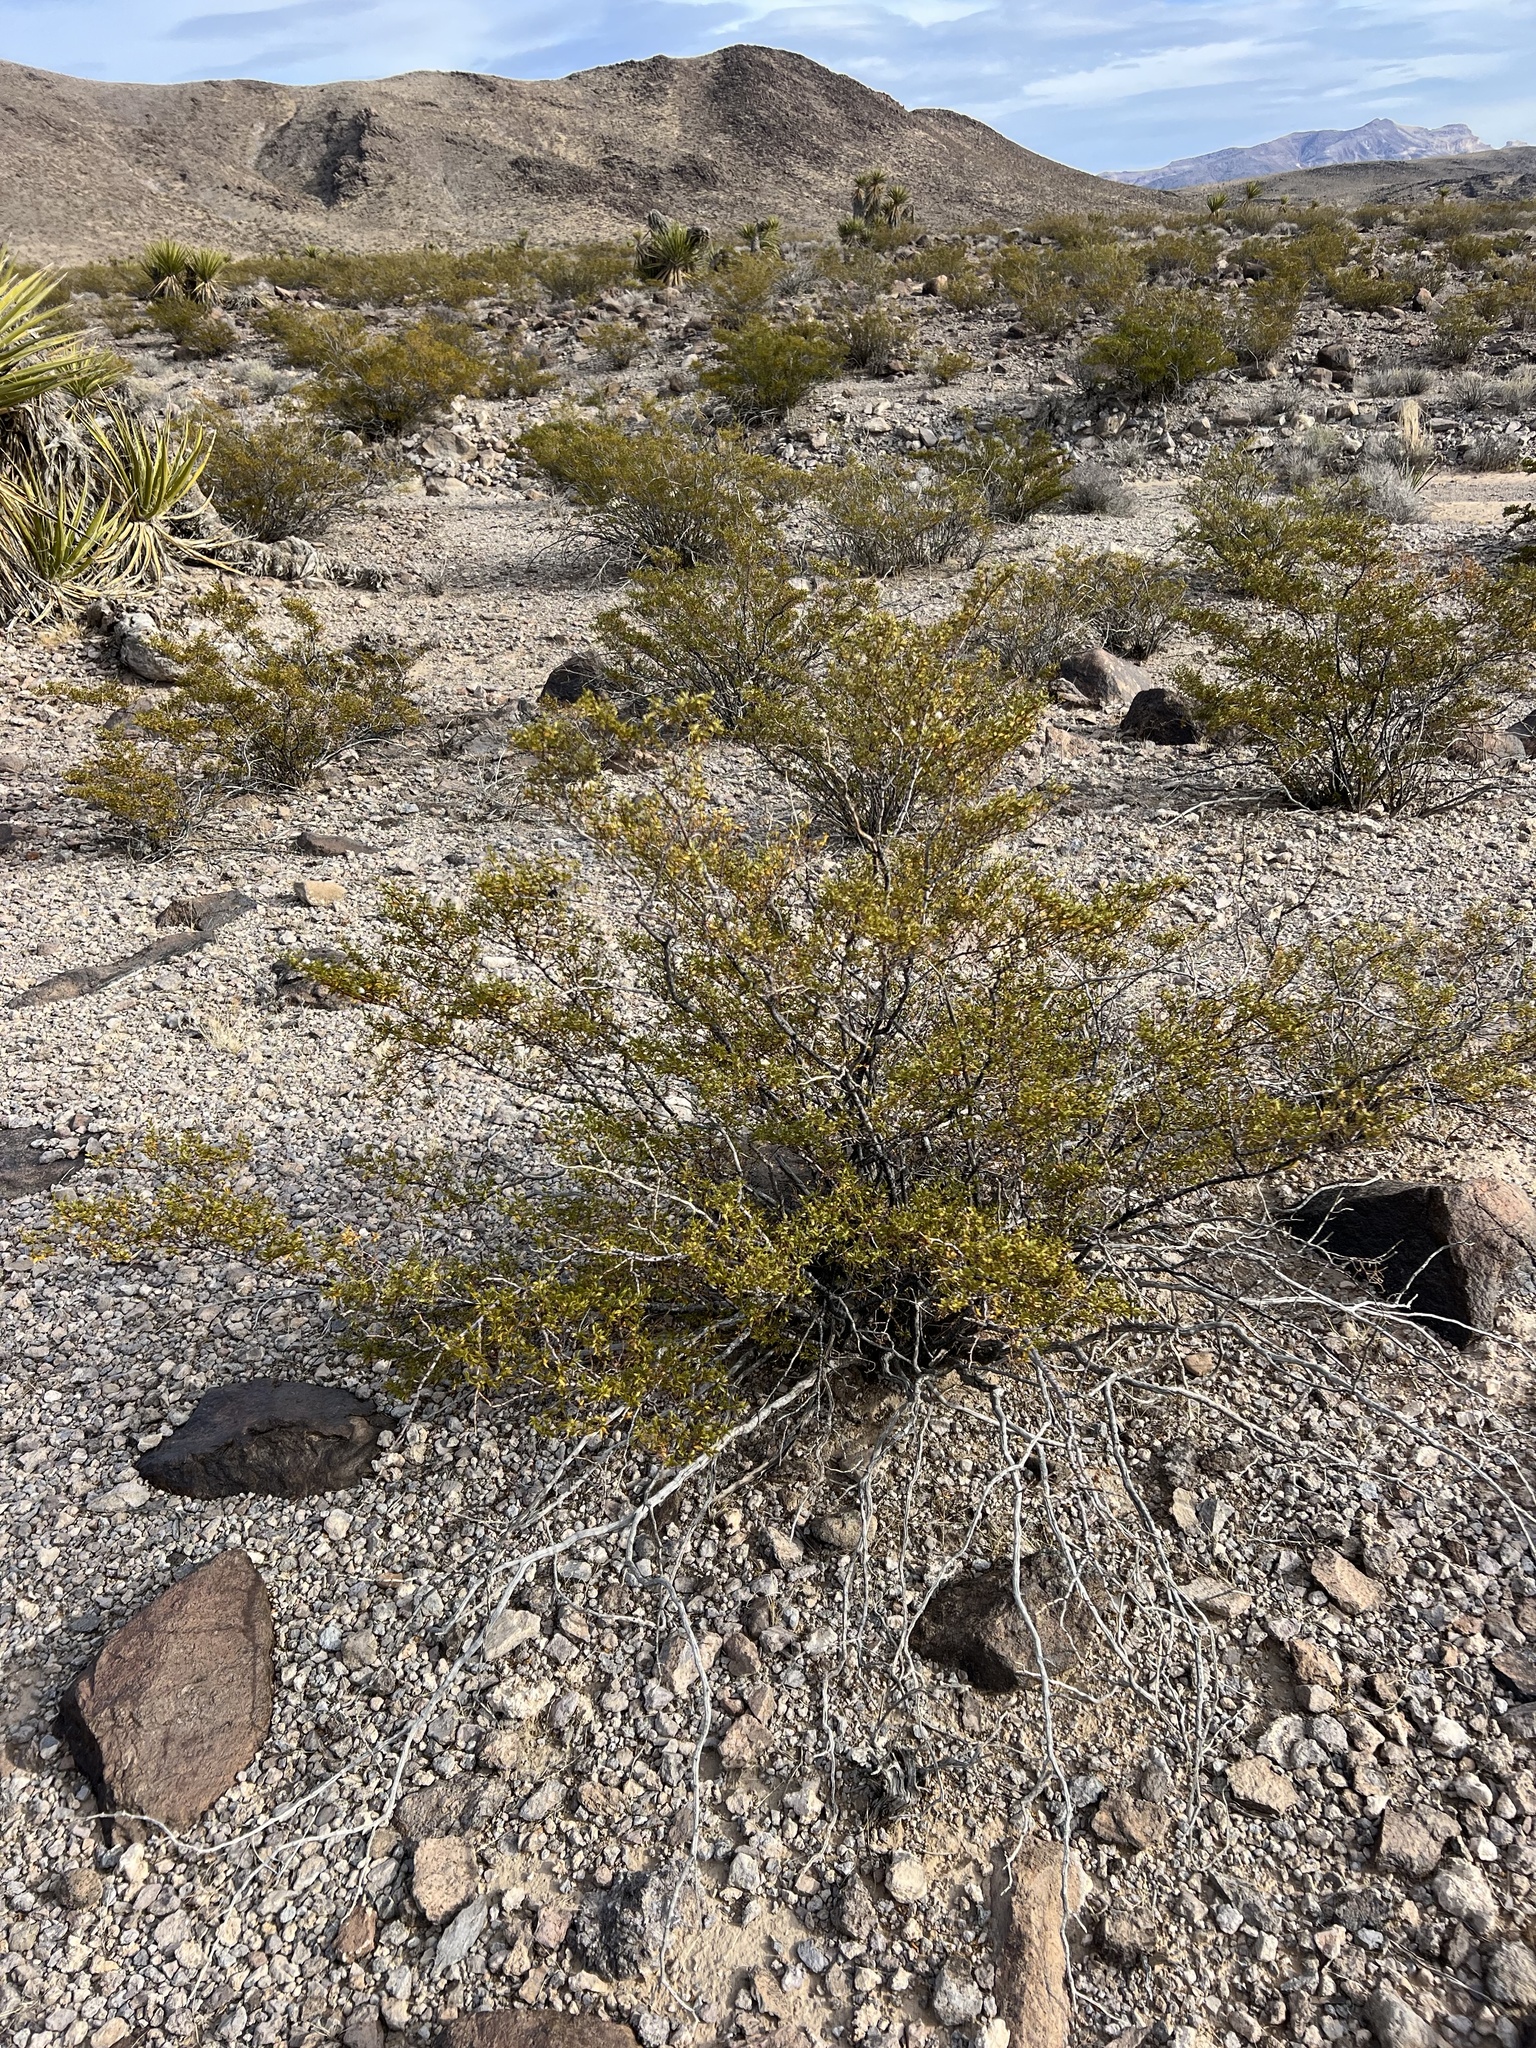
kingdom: Plantae
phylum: Tracheophyta
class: Magnoliopsida
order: Zygophyllales
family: Zygophyllaceae
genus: Larrea
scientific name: Larrea tridentata
